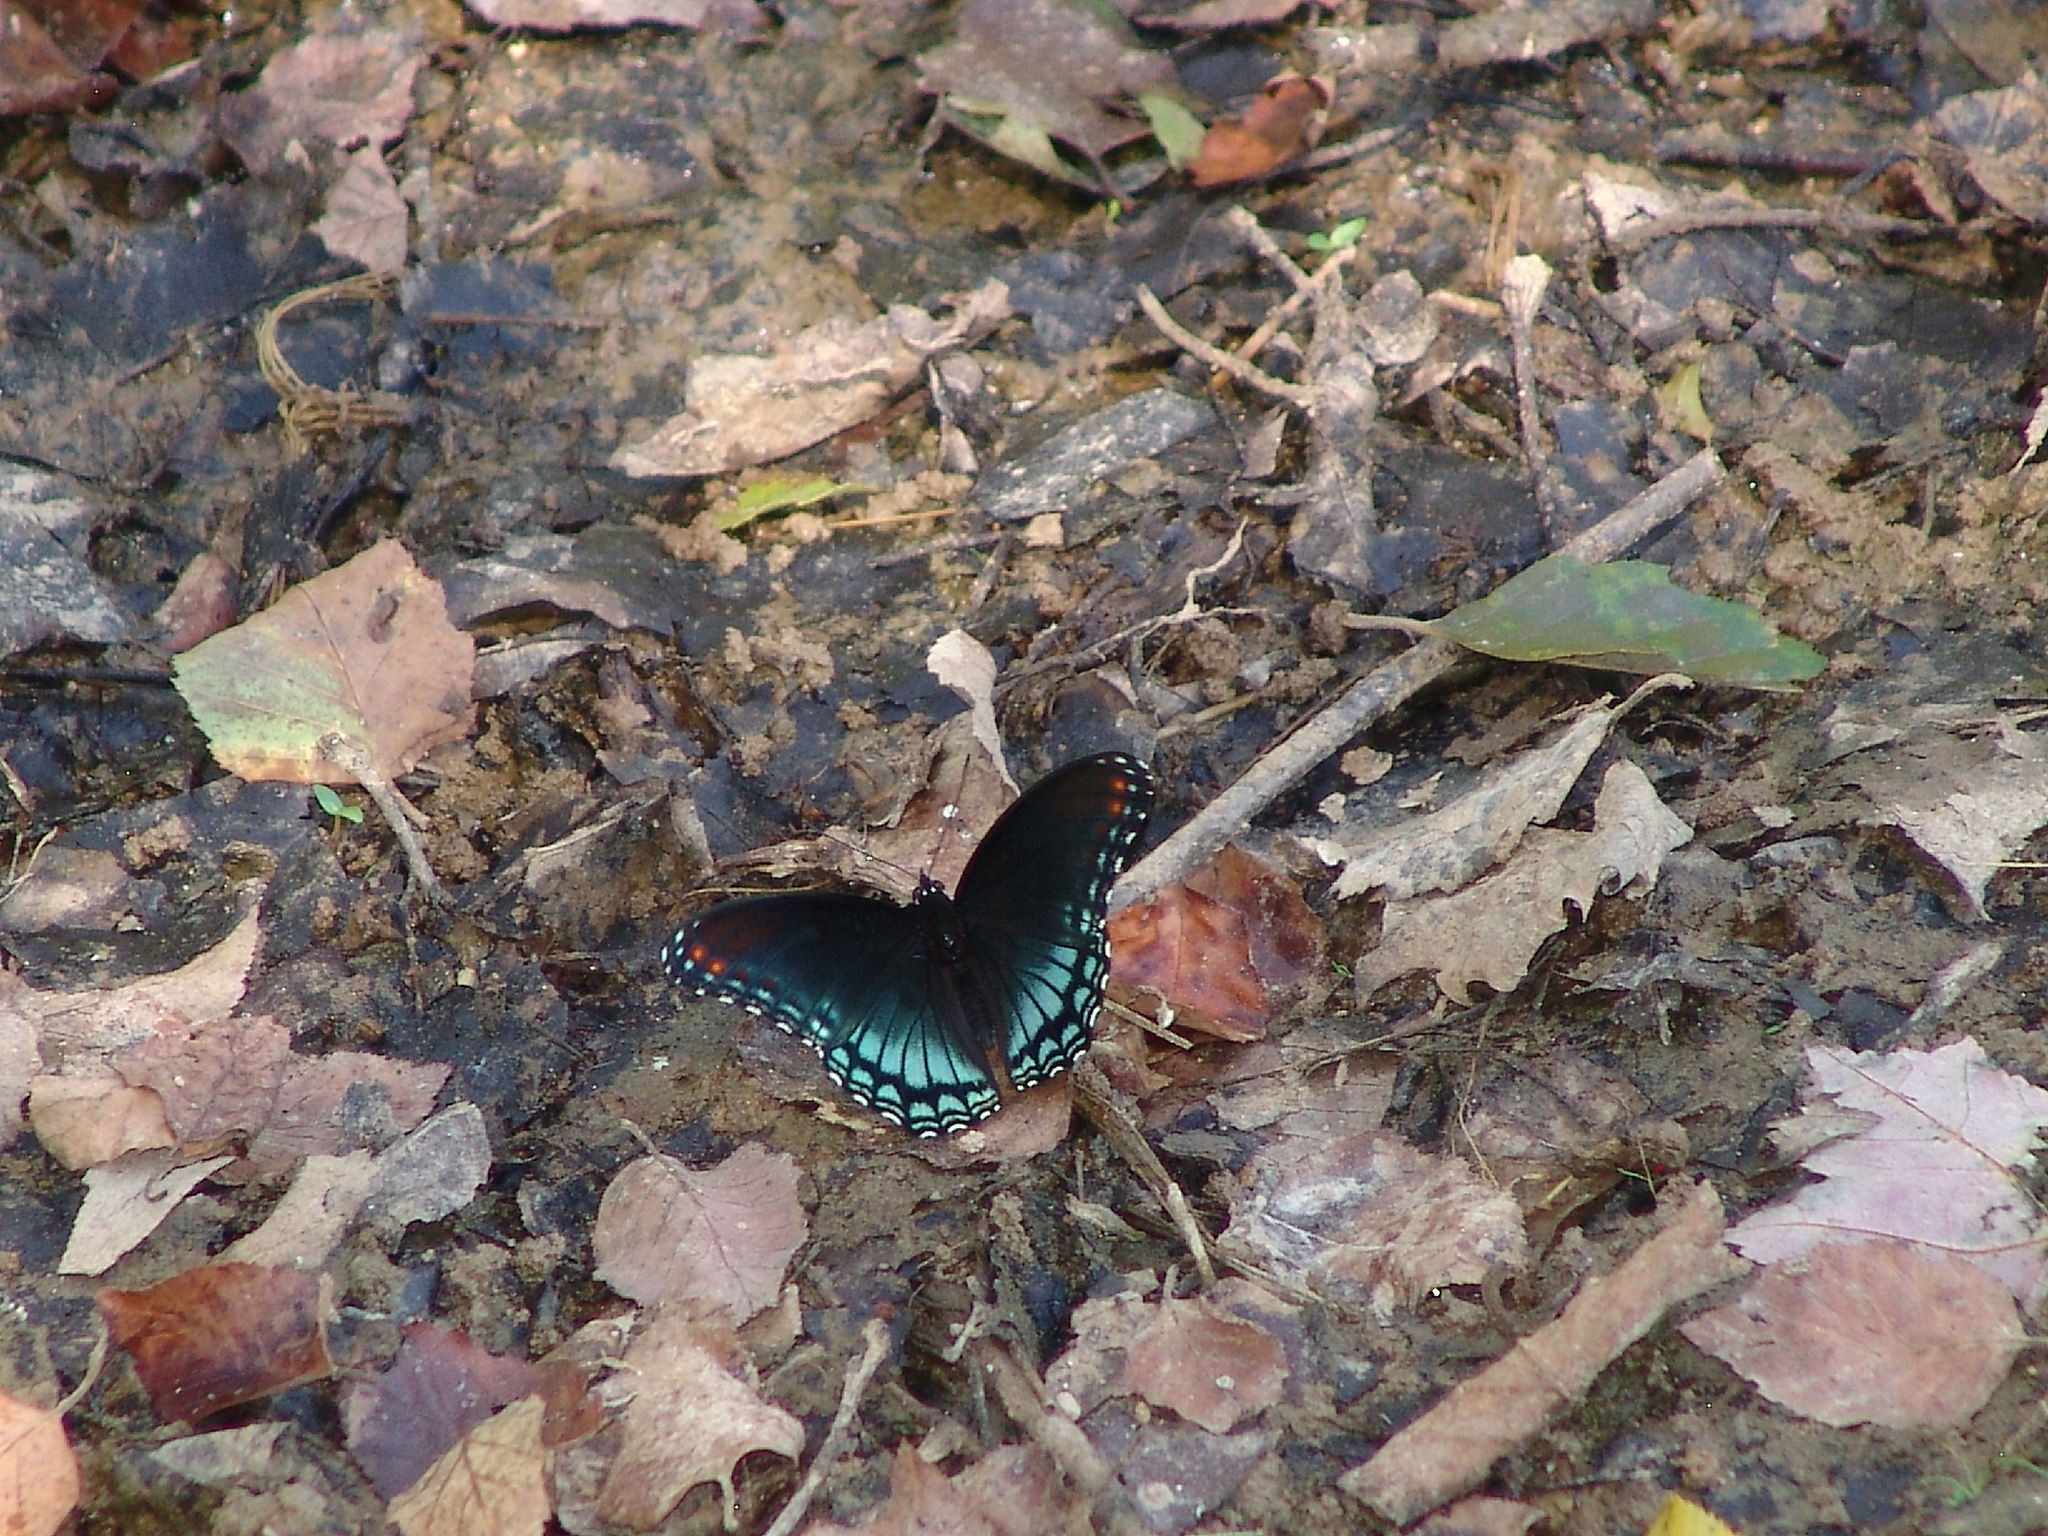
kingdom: Animalia
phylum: Arthropoda
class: Insecta
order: Lepidoptera
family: Nymphalidae
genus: Limenitis
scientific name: Limenitis astyanax
